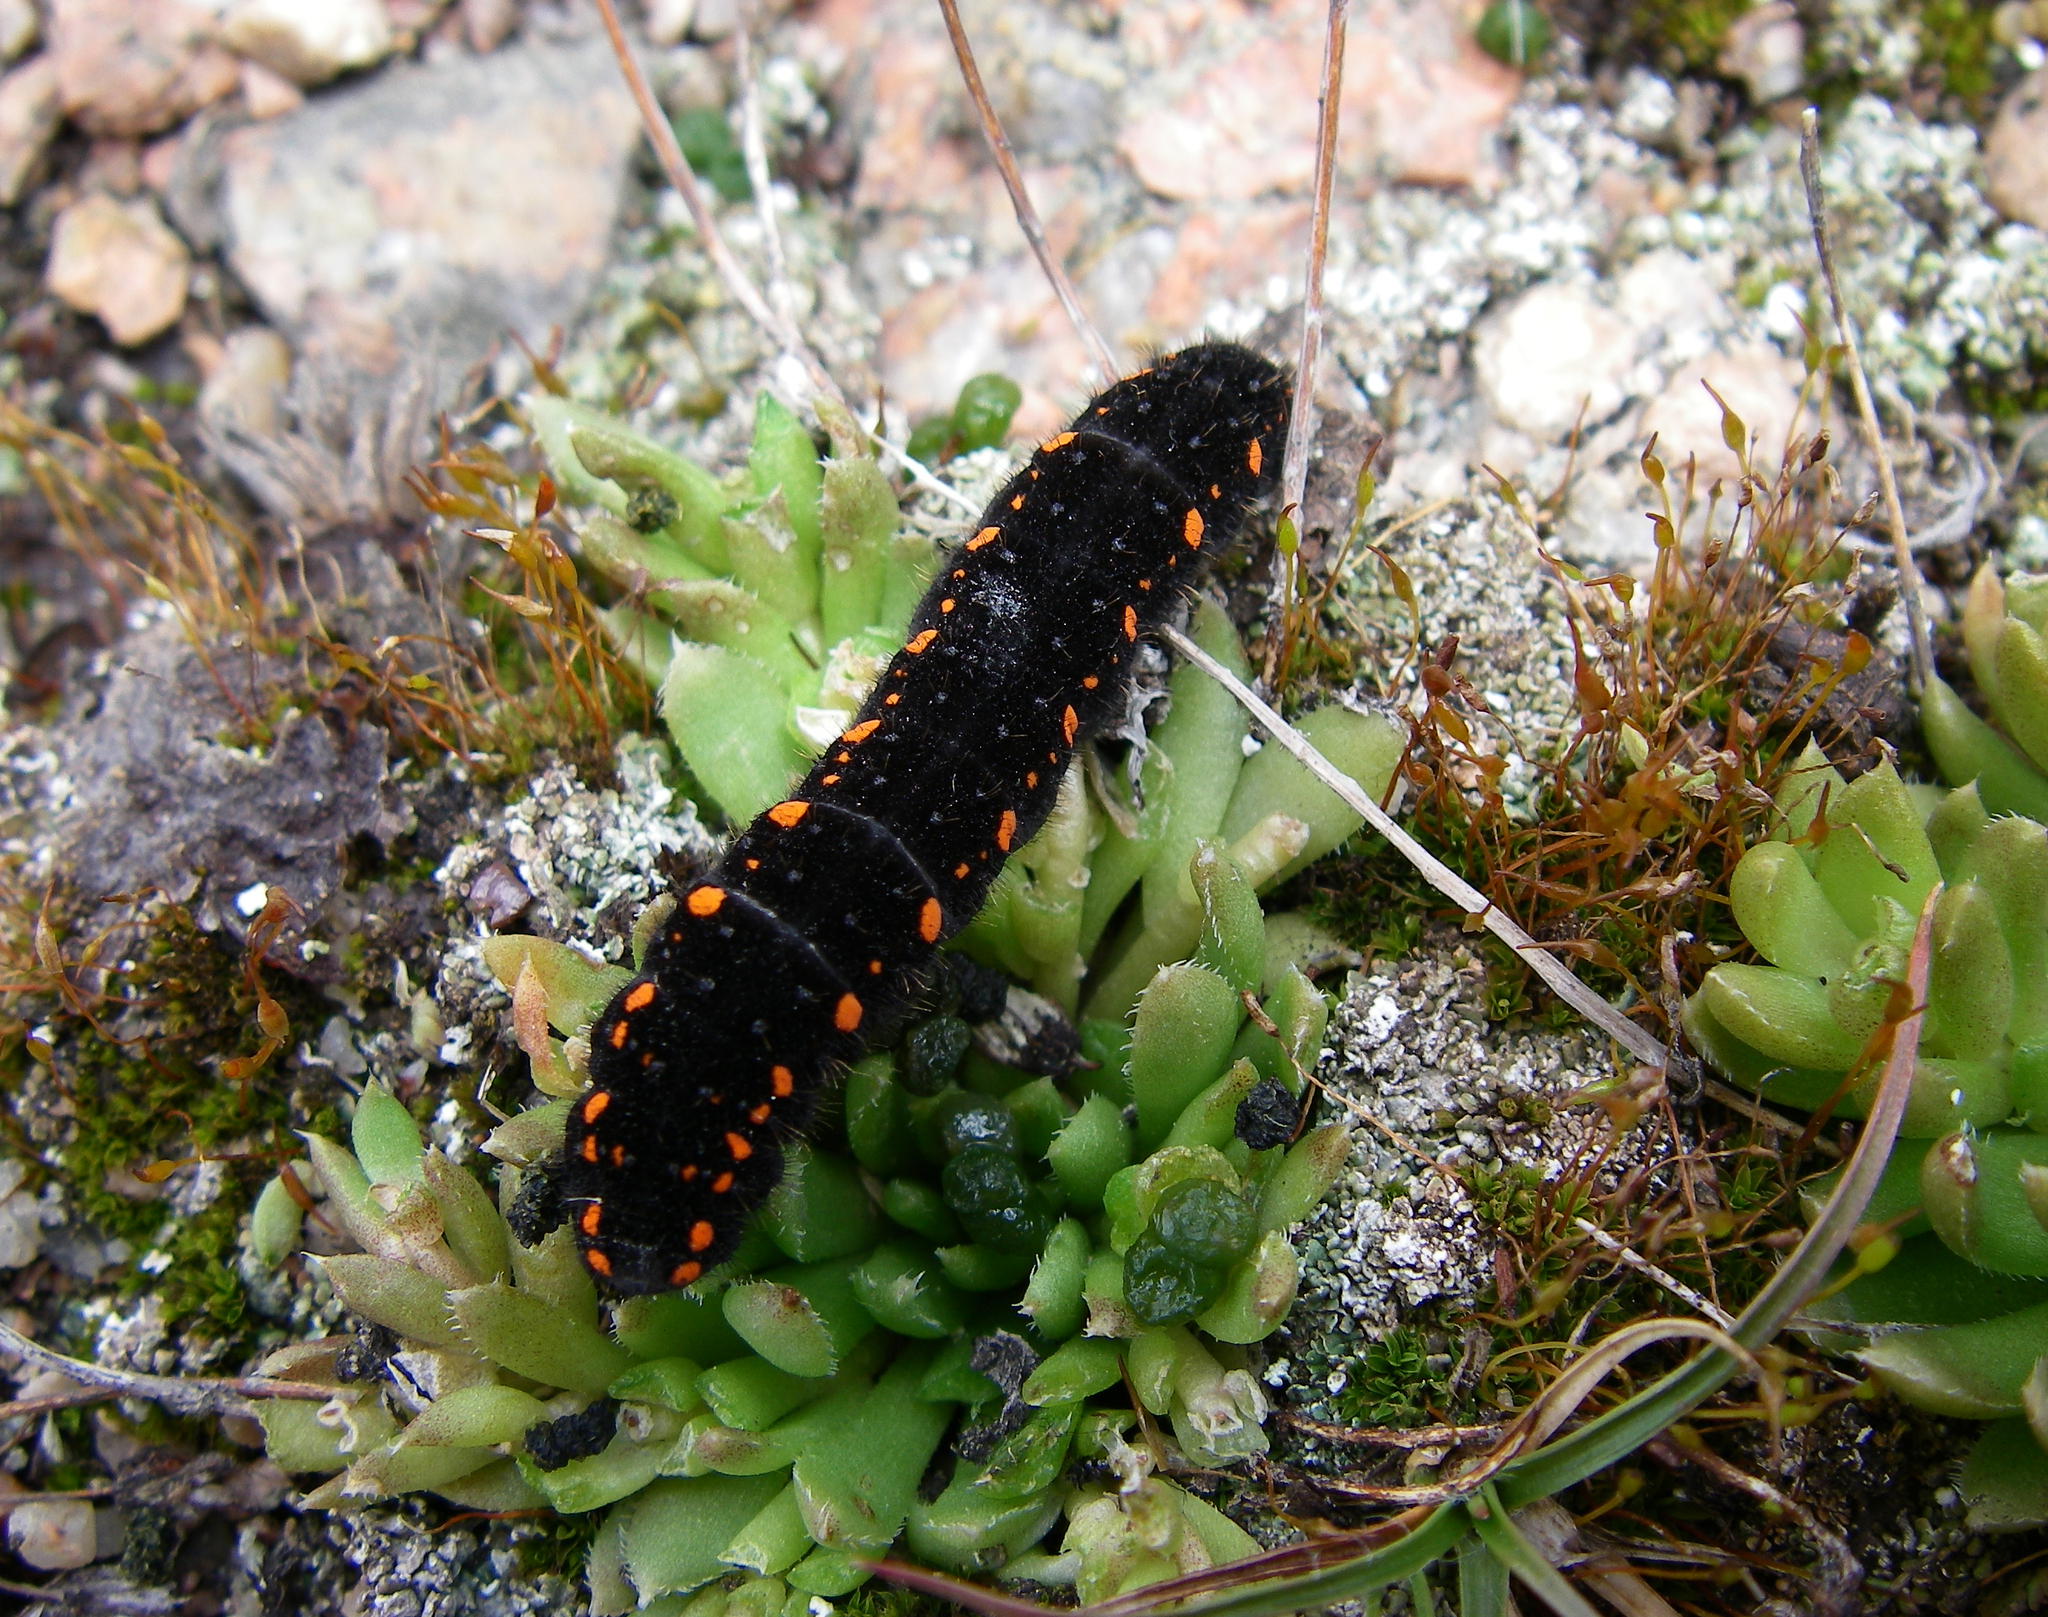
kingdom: Plantae
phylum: Tracheophyta
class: Magnoliopsida
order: Saxifragales
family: Crassulaceae
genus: Rosularia
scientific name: Rosularia alpestris
